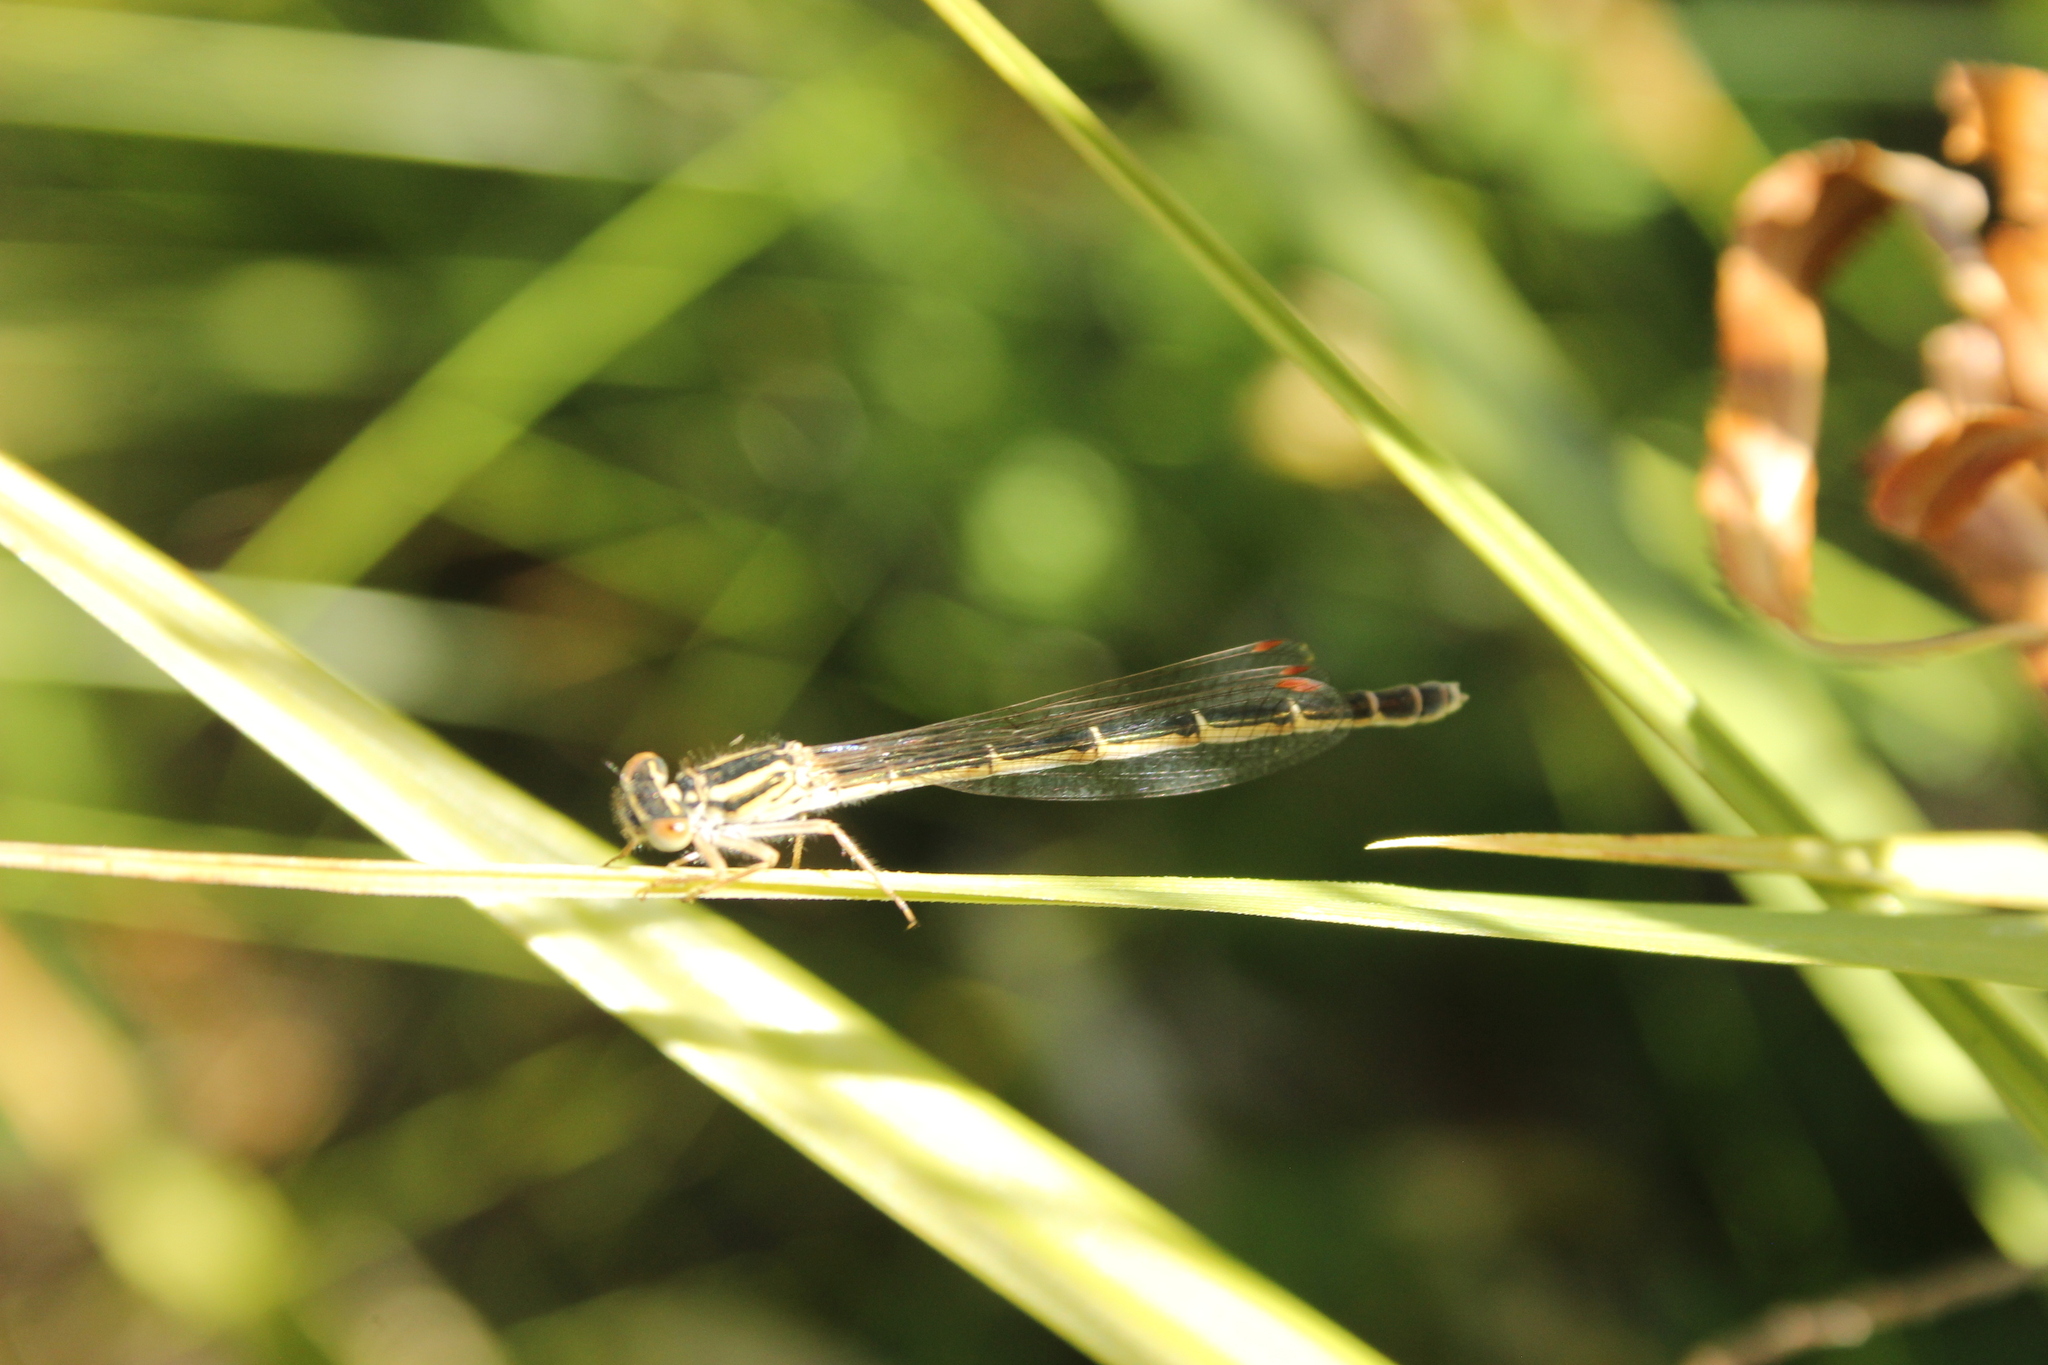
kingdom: Animalia
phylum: Arthropoda
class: Insecta
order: Odonata
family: Coenagrionidae
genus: Xanthocnemis
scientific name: Xanthocnemis zealandica
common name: Common redcoat damselfly
